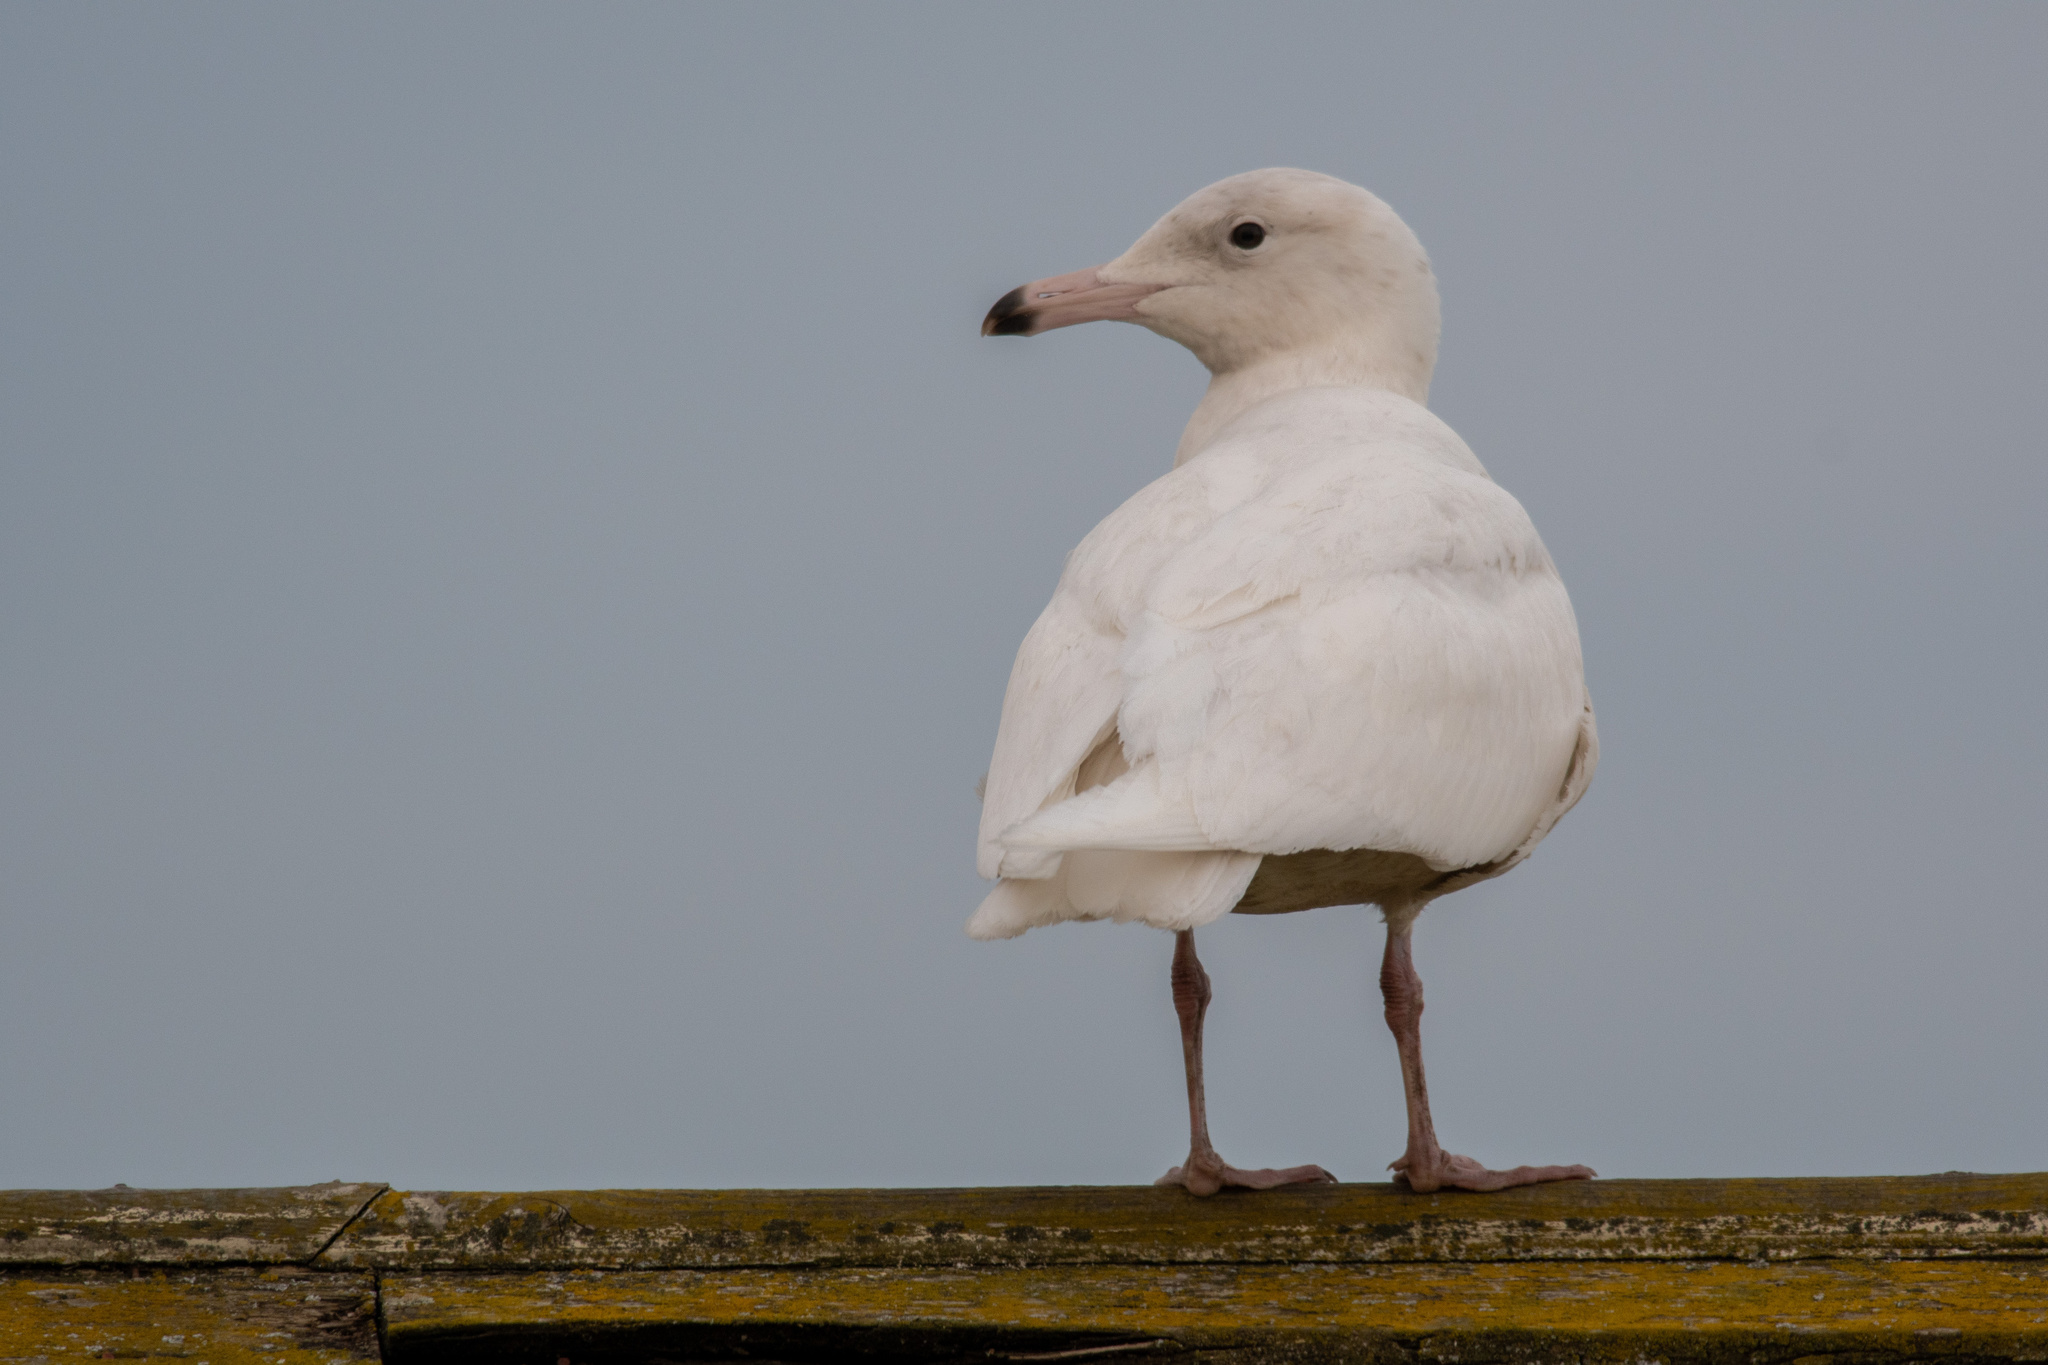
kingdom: Animalia
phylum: Chordata
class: Aves
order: Charadriiformes
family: Laridae
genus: Larus
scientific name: Larus hyperboreus
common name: Glaucous gull
